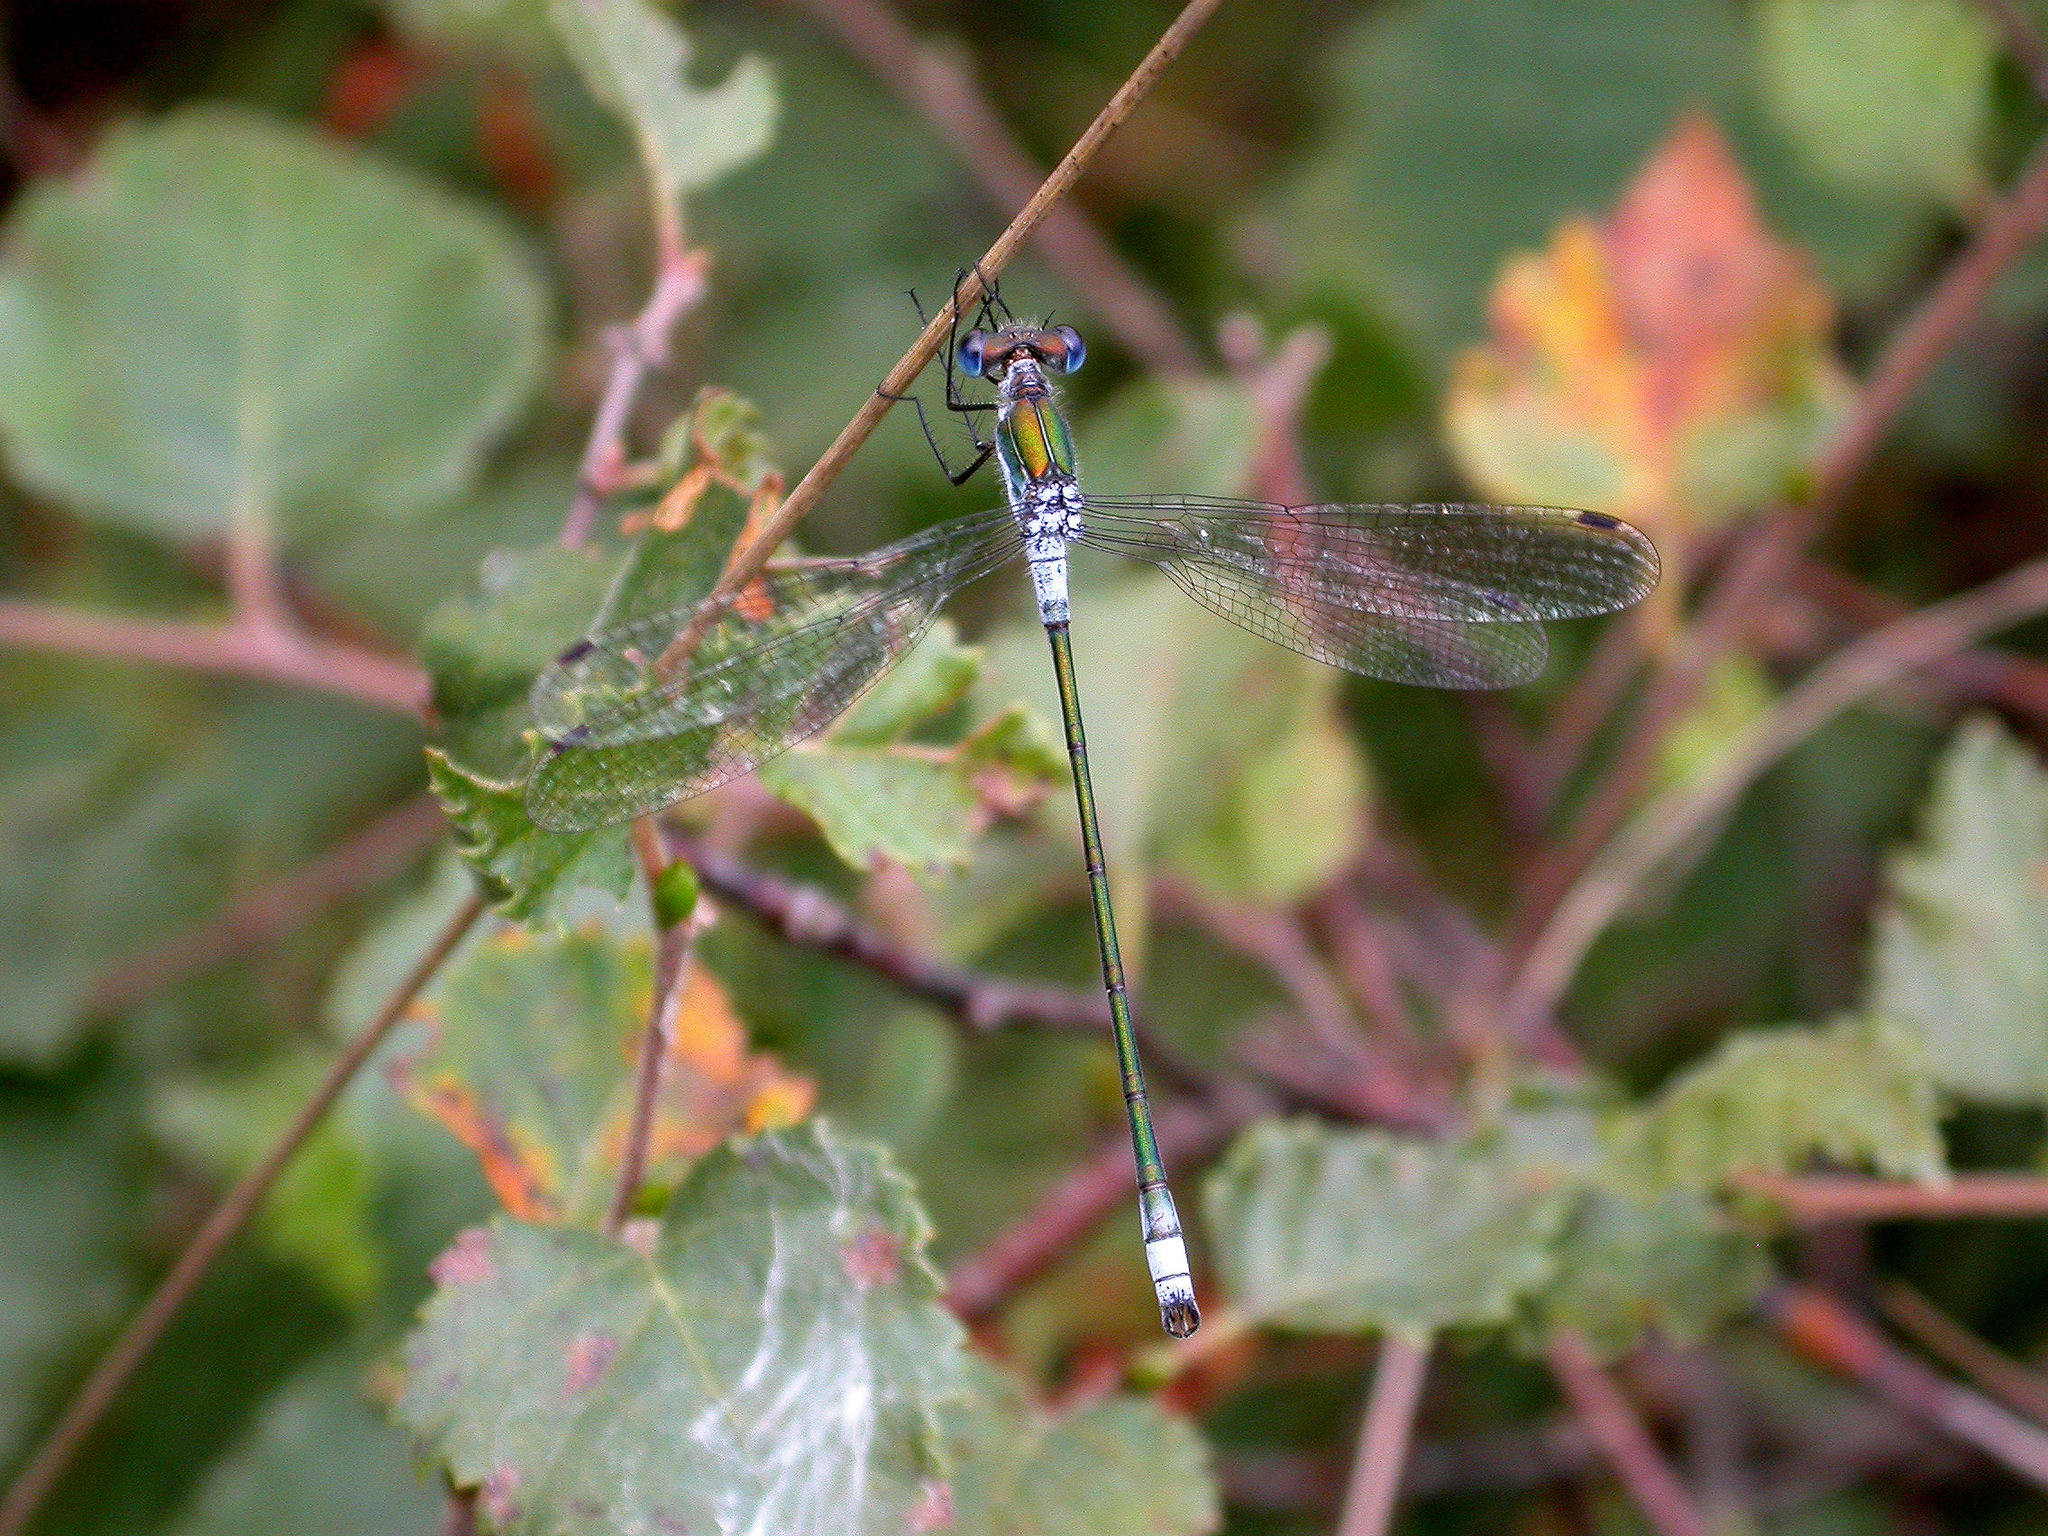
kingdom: Animalia
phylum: Arthropoda
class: Insecta
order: Odonata
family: Lestidae
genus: Lestes
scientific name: Lestes sponsa
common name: Common spreadwing
